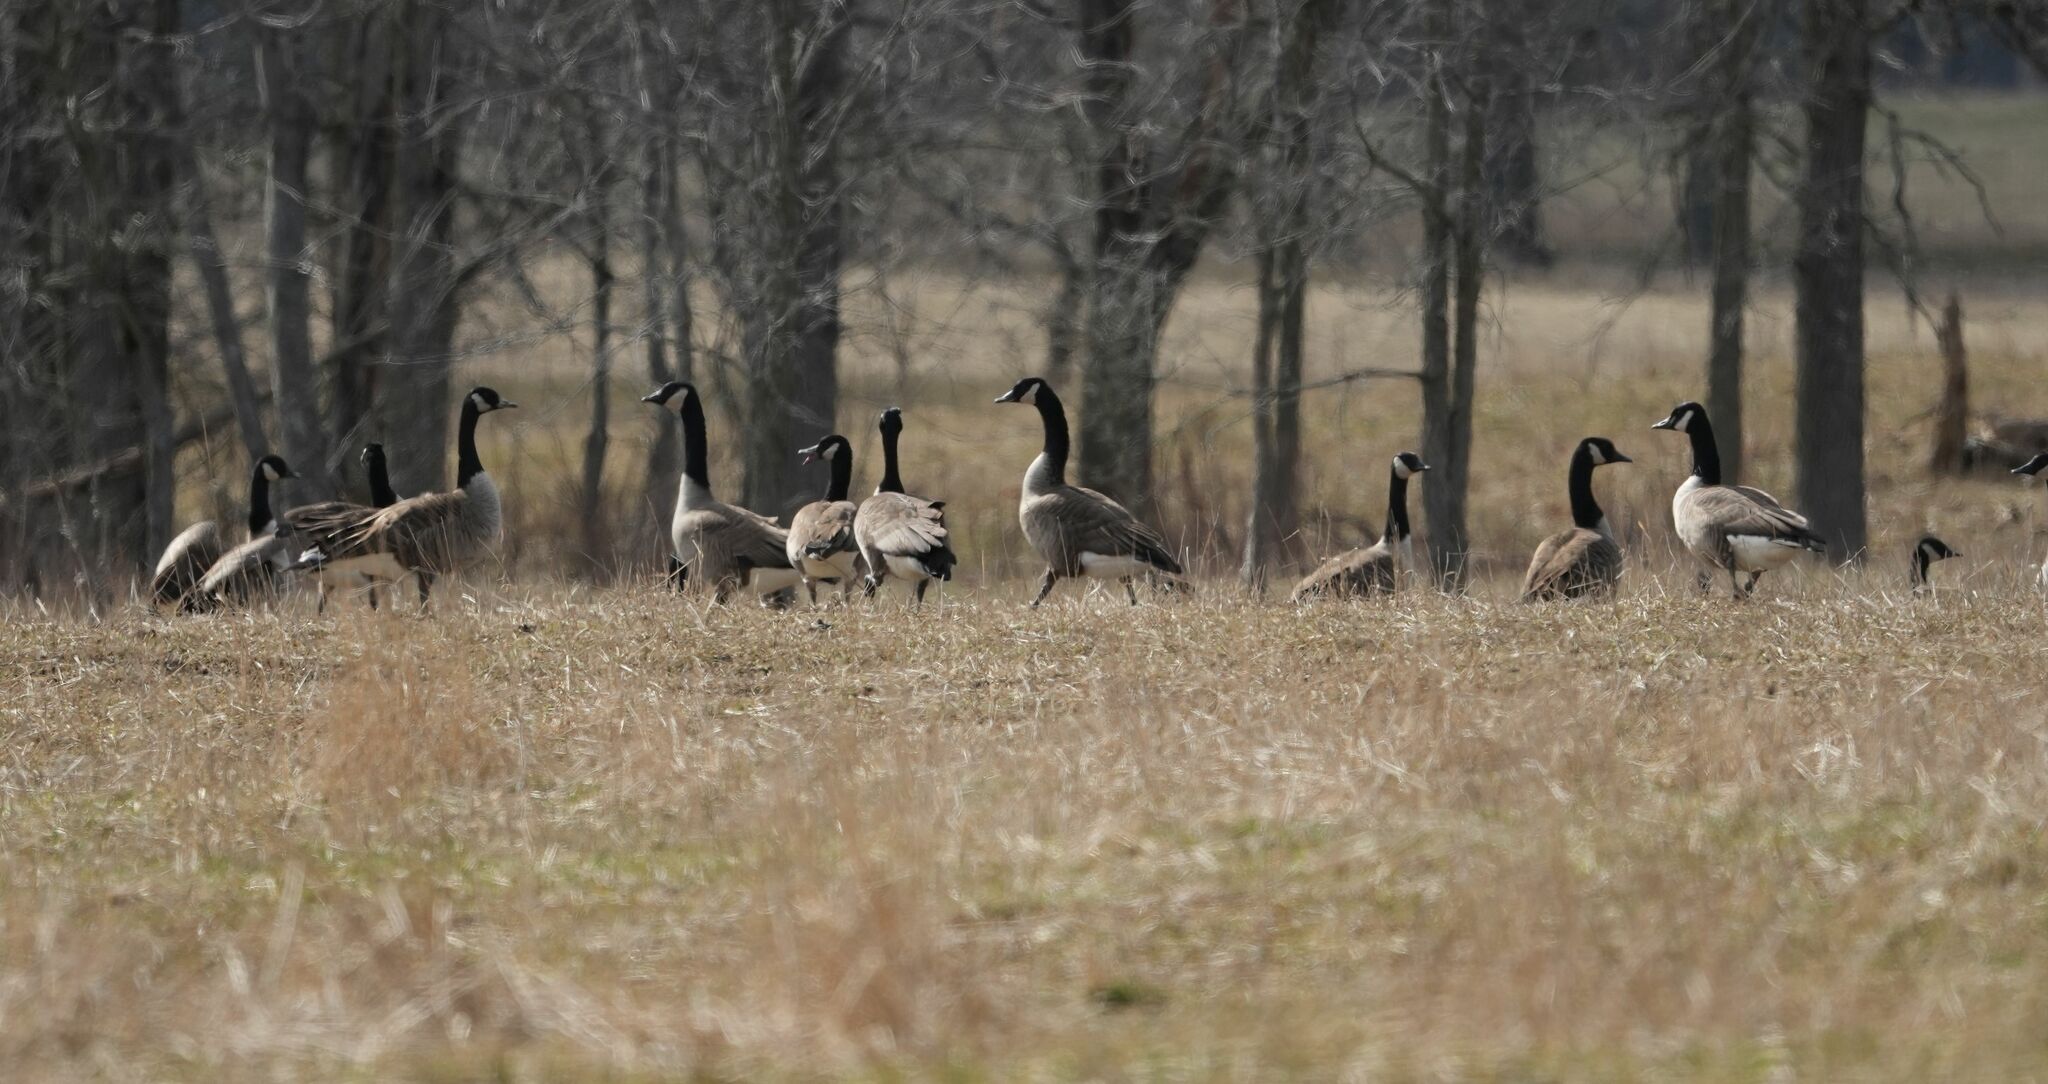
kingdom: Animalia
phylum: Chordata
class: Aves
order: Anseriformes
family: Anatidae
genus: Branta
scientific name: Branta canadensis
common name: Canada goose
